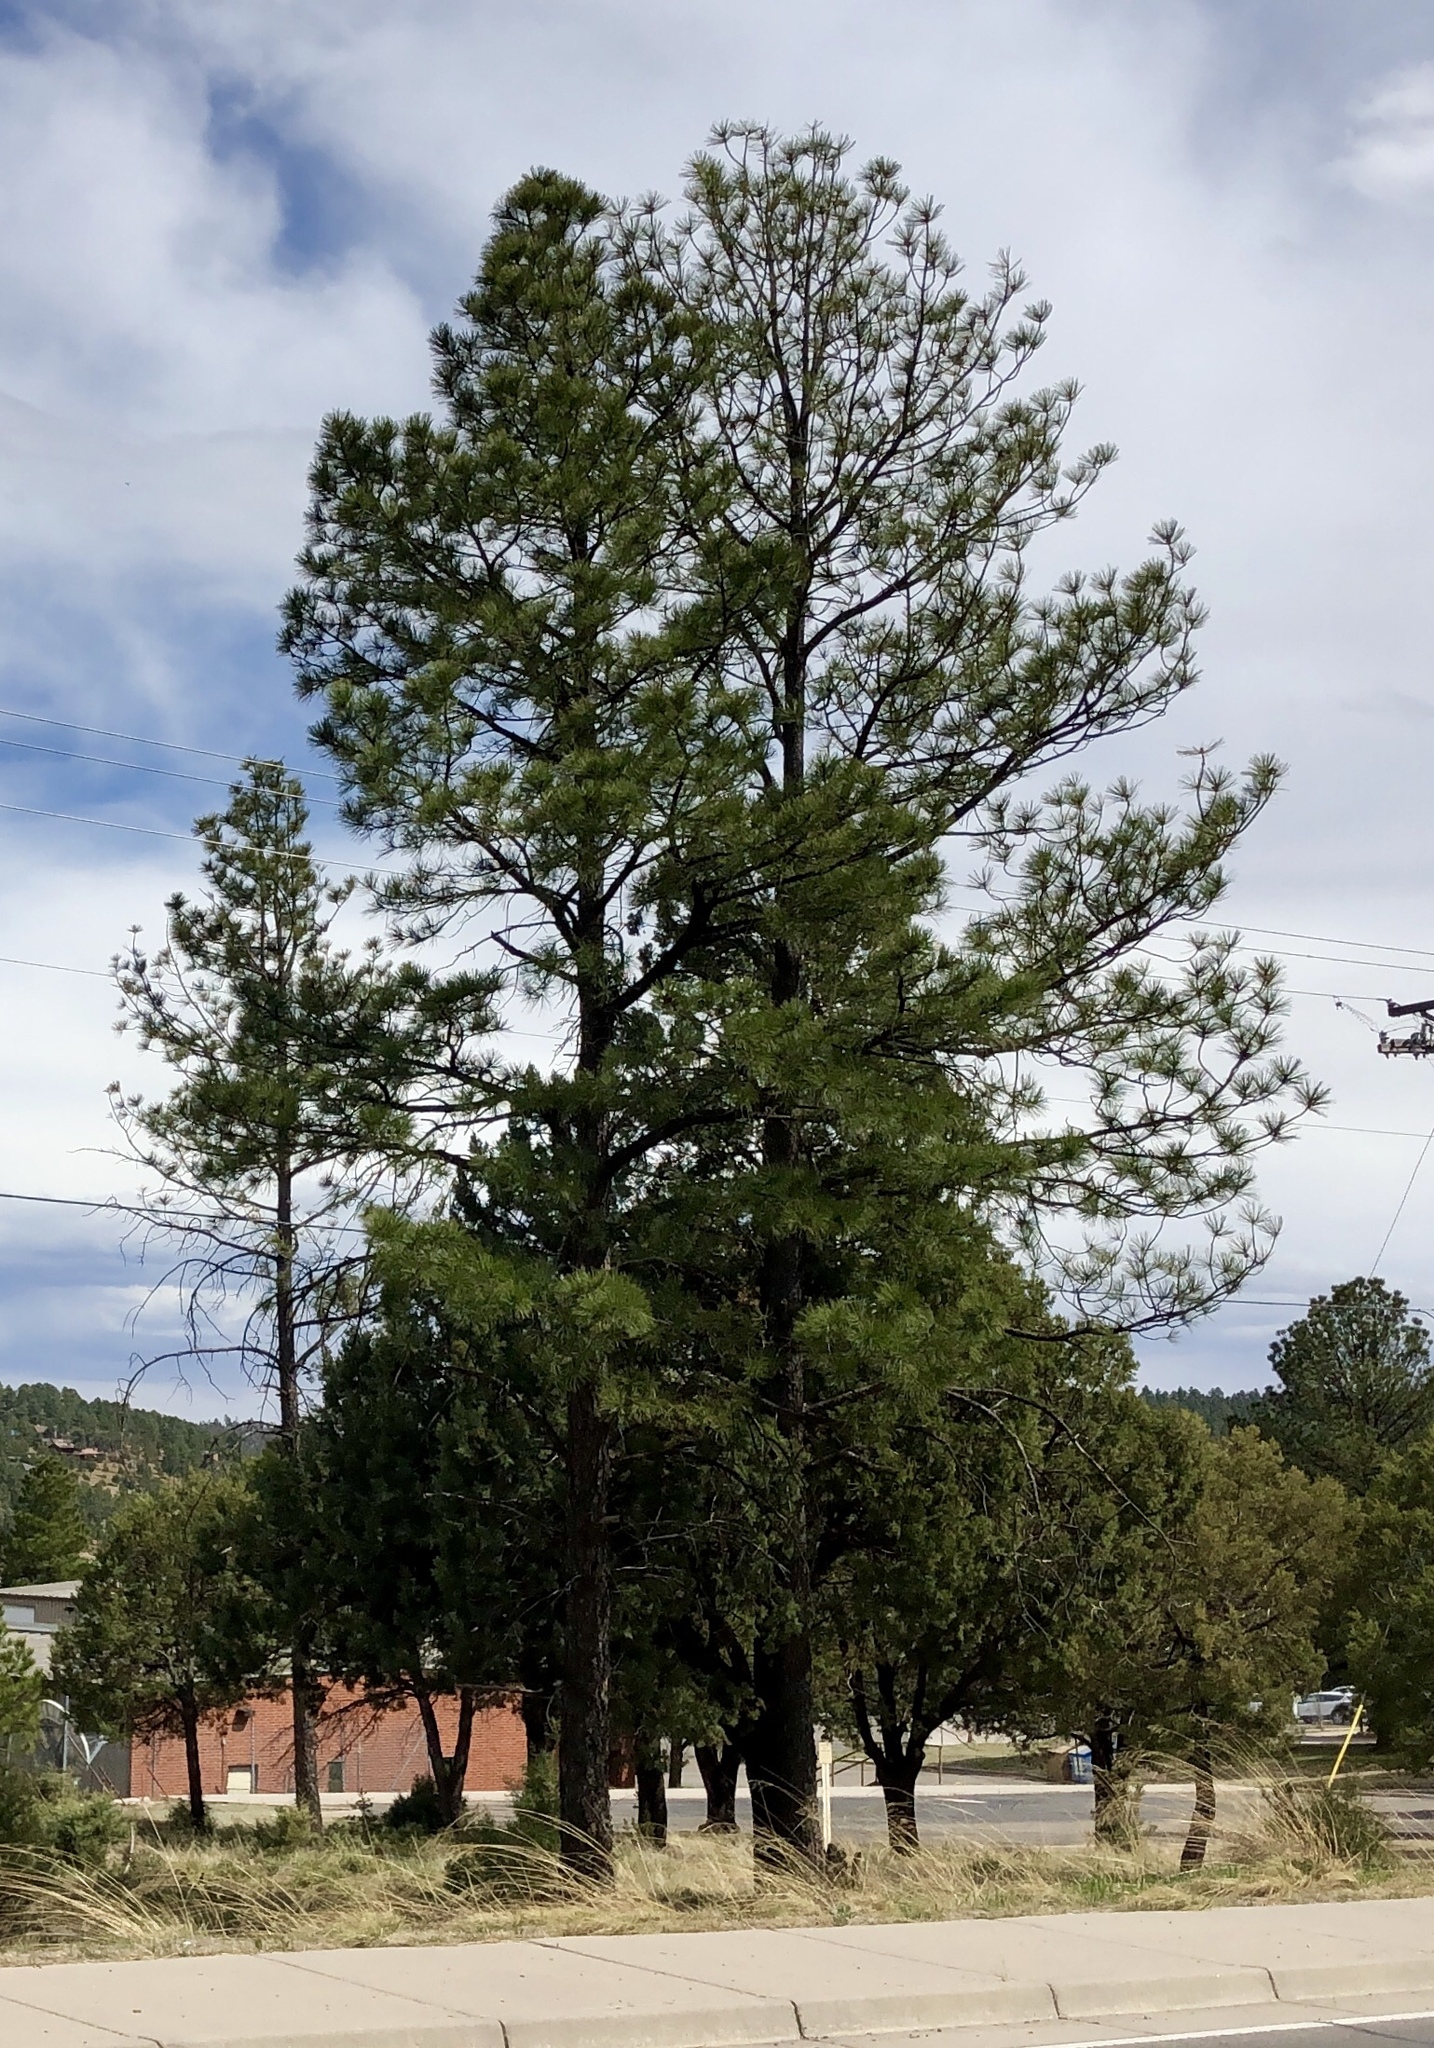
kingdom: Plantae
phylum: Tracheophyta
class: Pinopsida
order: Pinales
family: Pinaceae
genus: Pinus
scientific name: Pinus ponderosa
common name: Western yellow-pine
